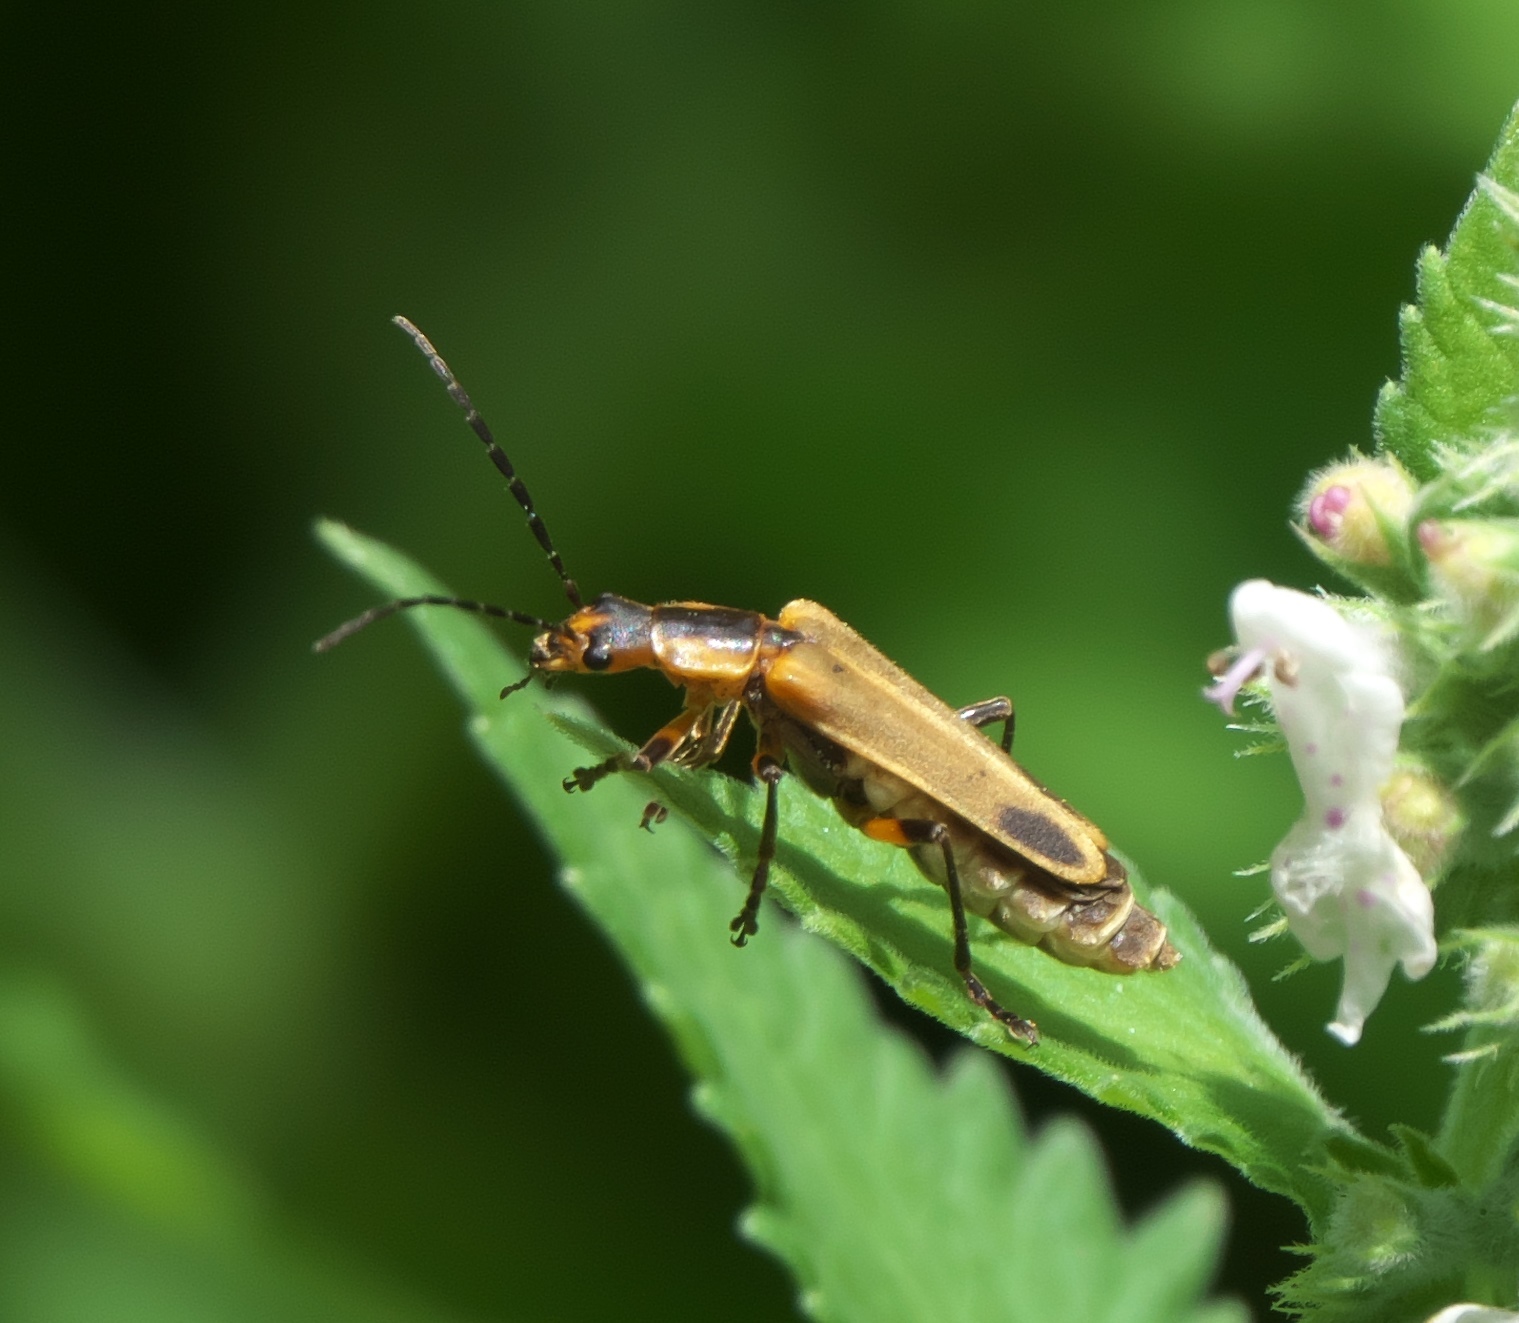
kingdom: Animalia
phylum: Arthropoda
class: Insecta
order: Coleoptera
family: Cantharidae
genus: Chauliognathus
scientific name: Chauliognathus marginatus
